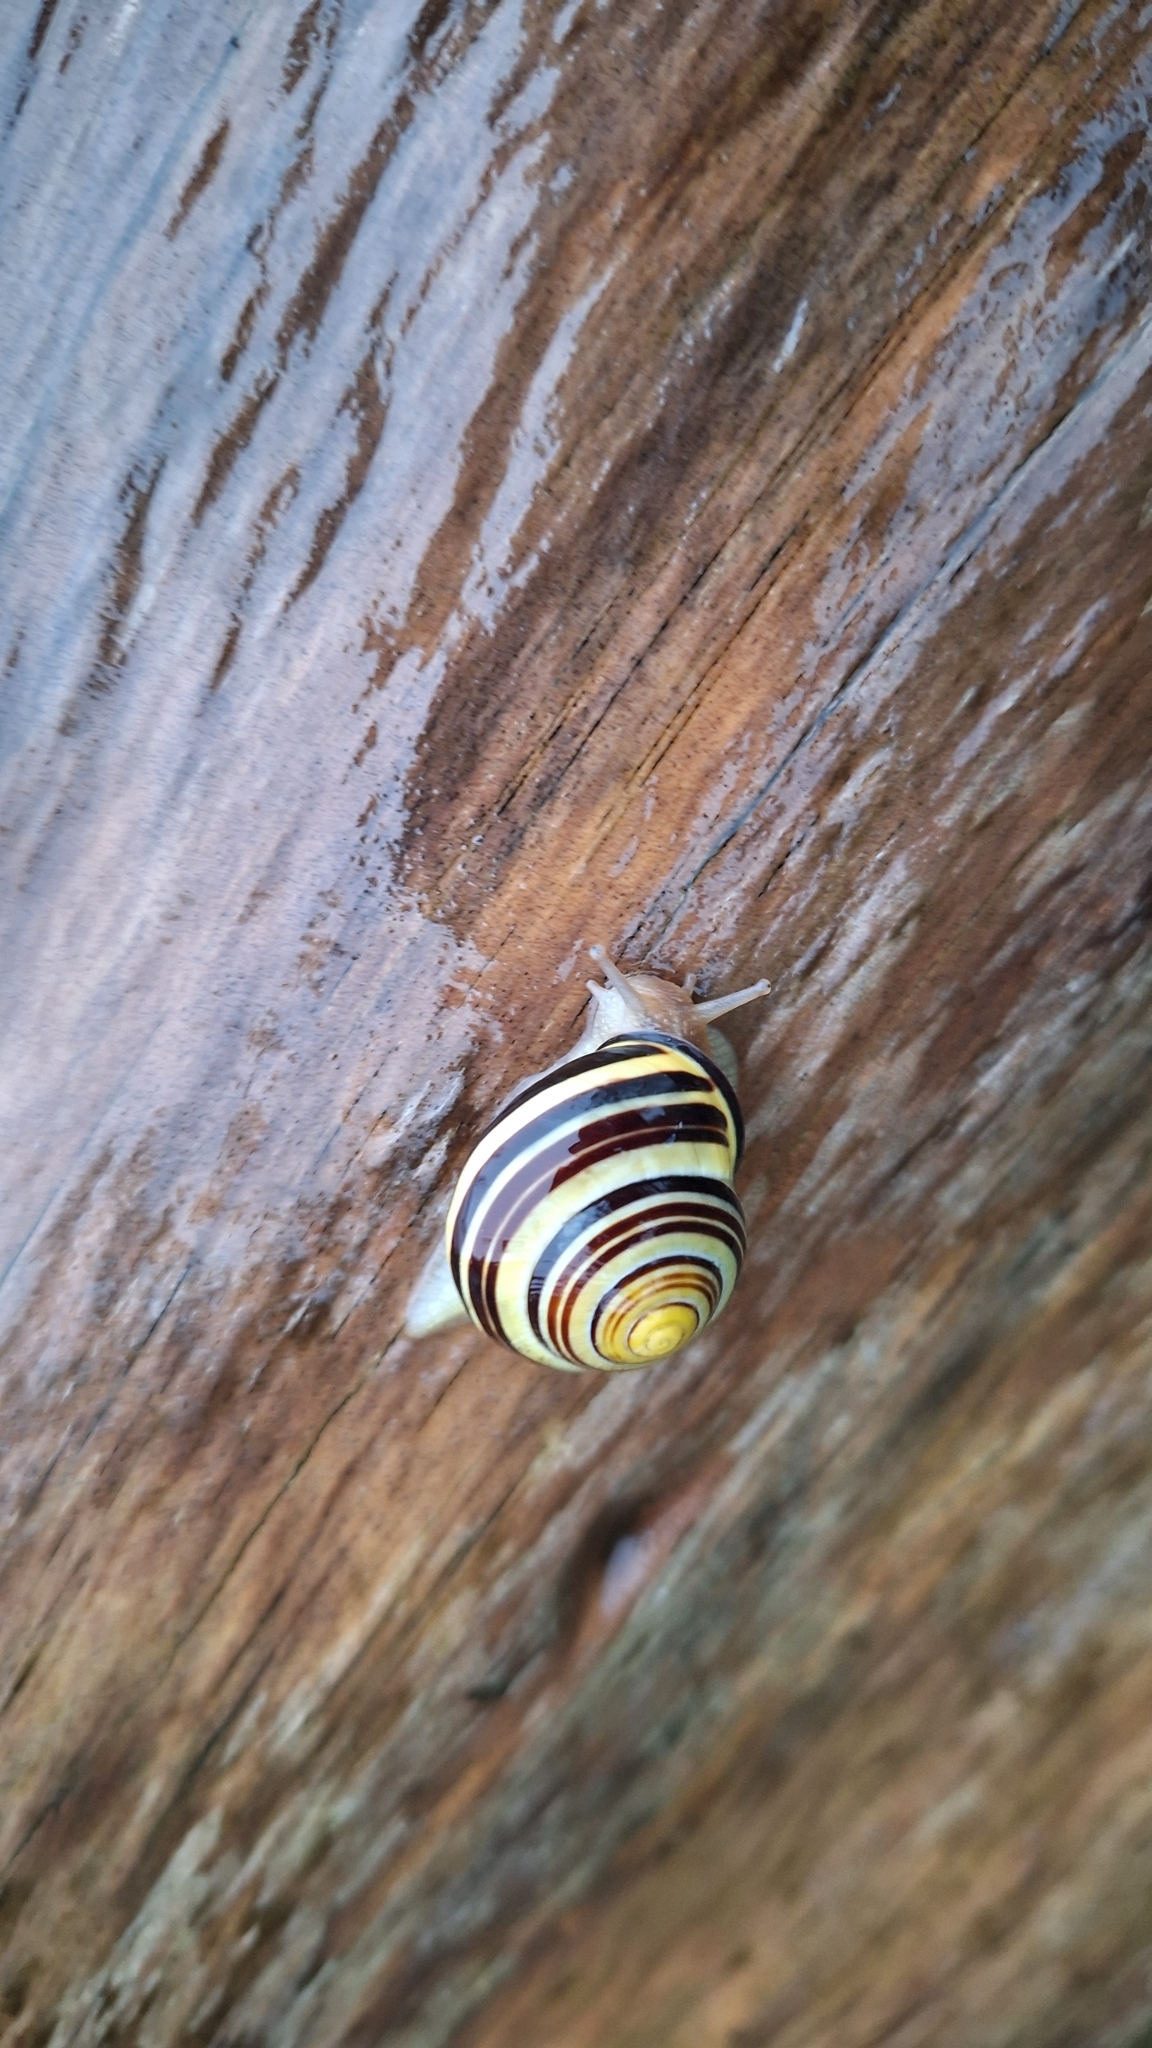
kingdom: Animalia
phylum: Mollusca
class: Gastropoda
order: Stylommatophora
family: Helicidae
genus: Cepaea
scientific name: Cepaea nemoralis
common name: Grovesnail
